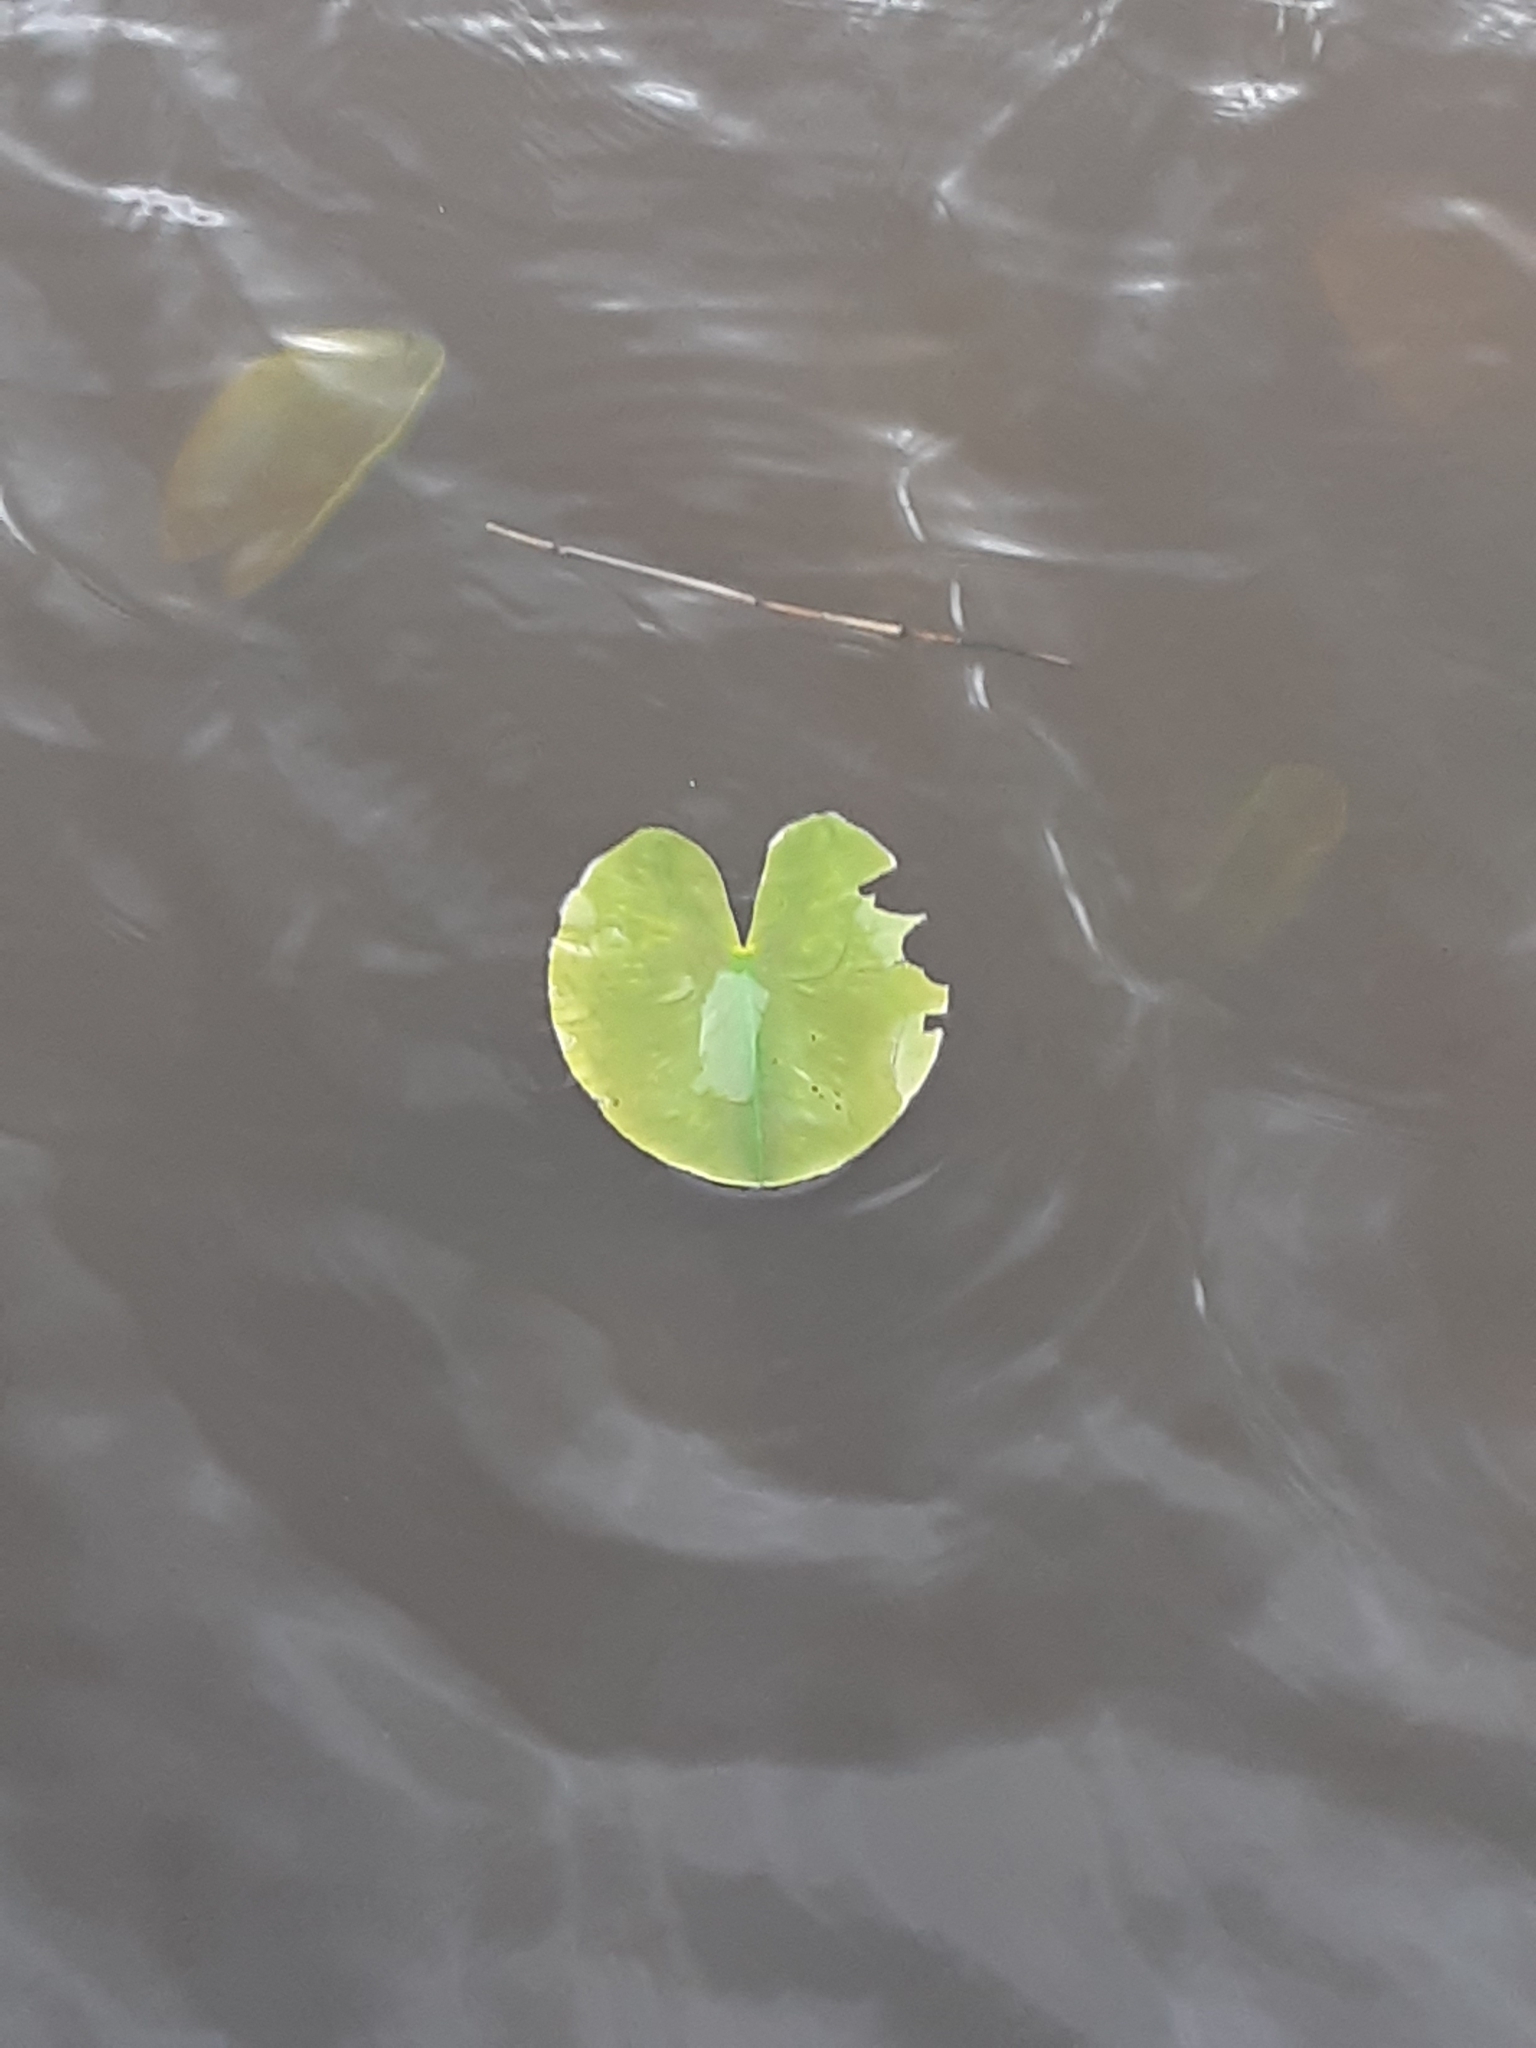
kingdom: Plantae
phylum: Tracheophyta
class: Magnoliopsida
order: Nymphaeales
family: Nymphaeaceae
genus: Nuphar
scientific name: Nuphar lutea
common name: Yellow water-lily
